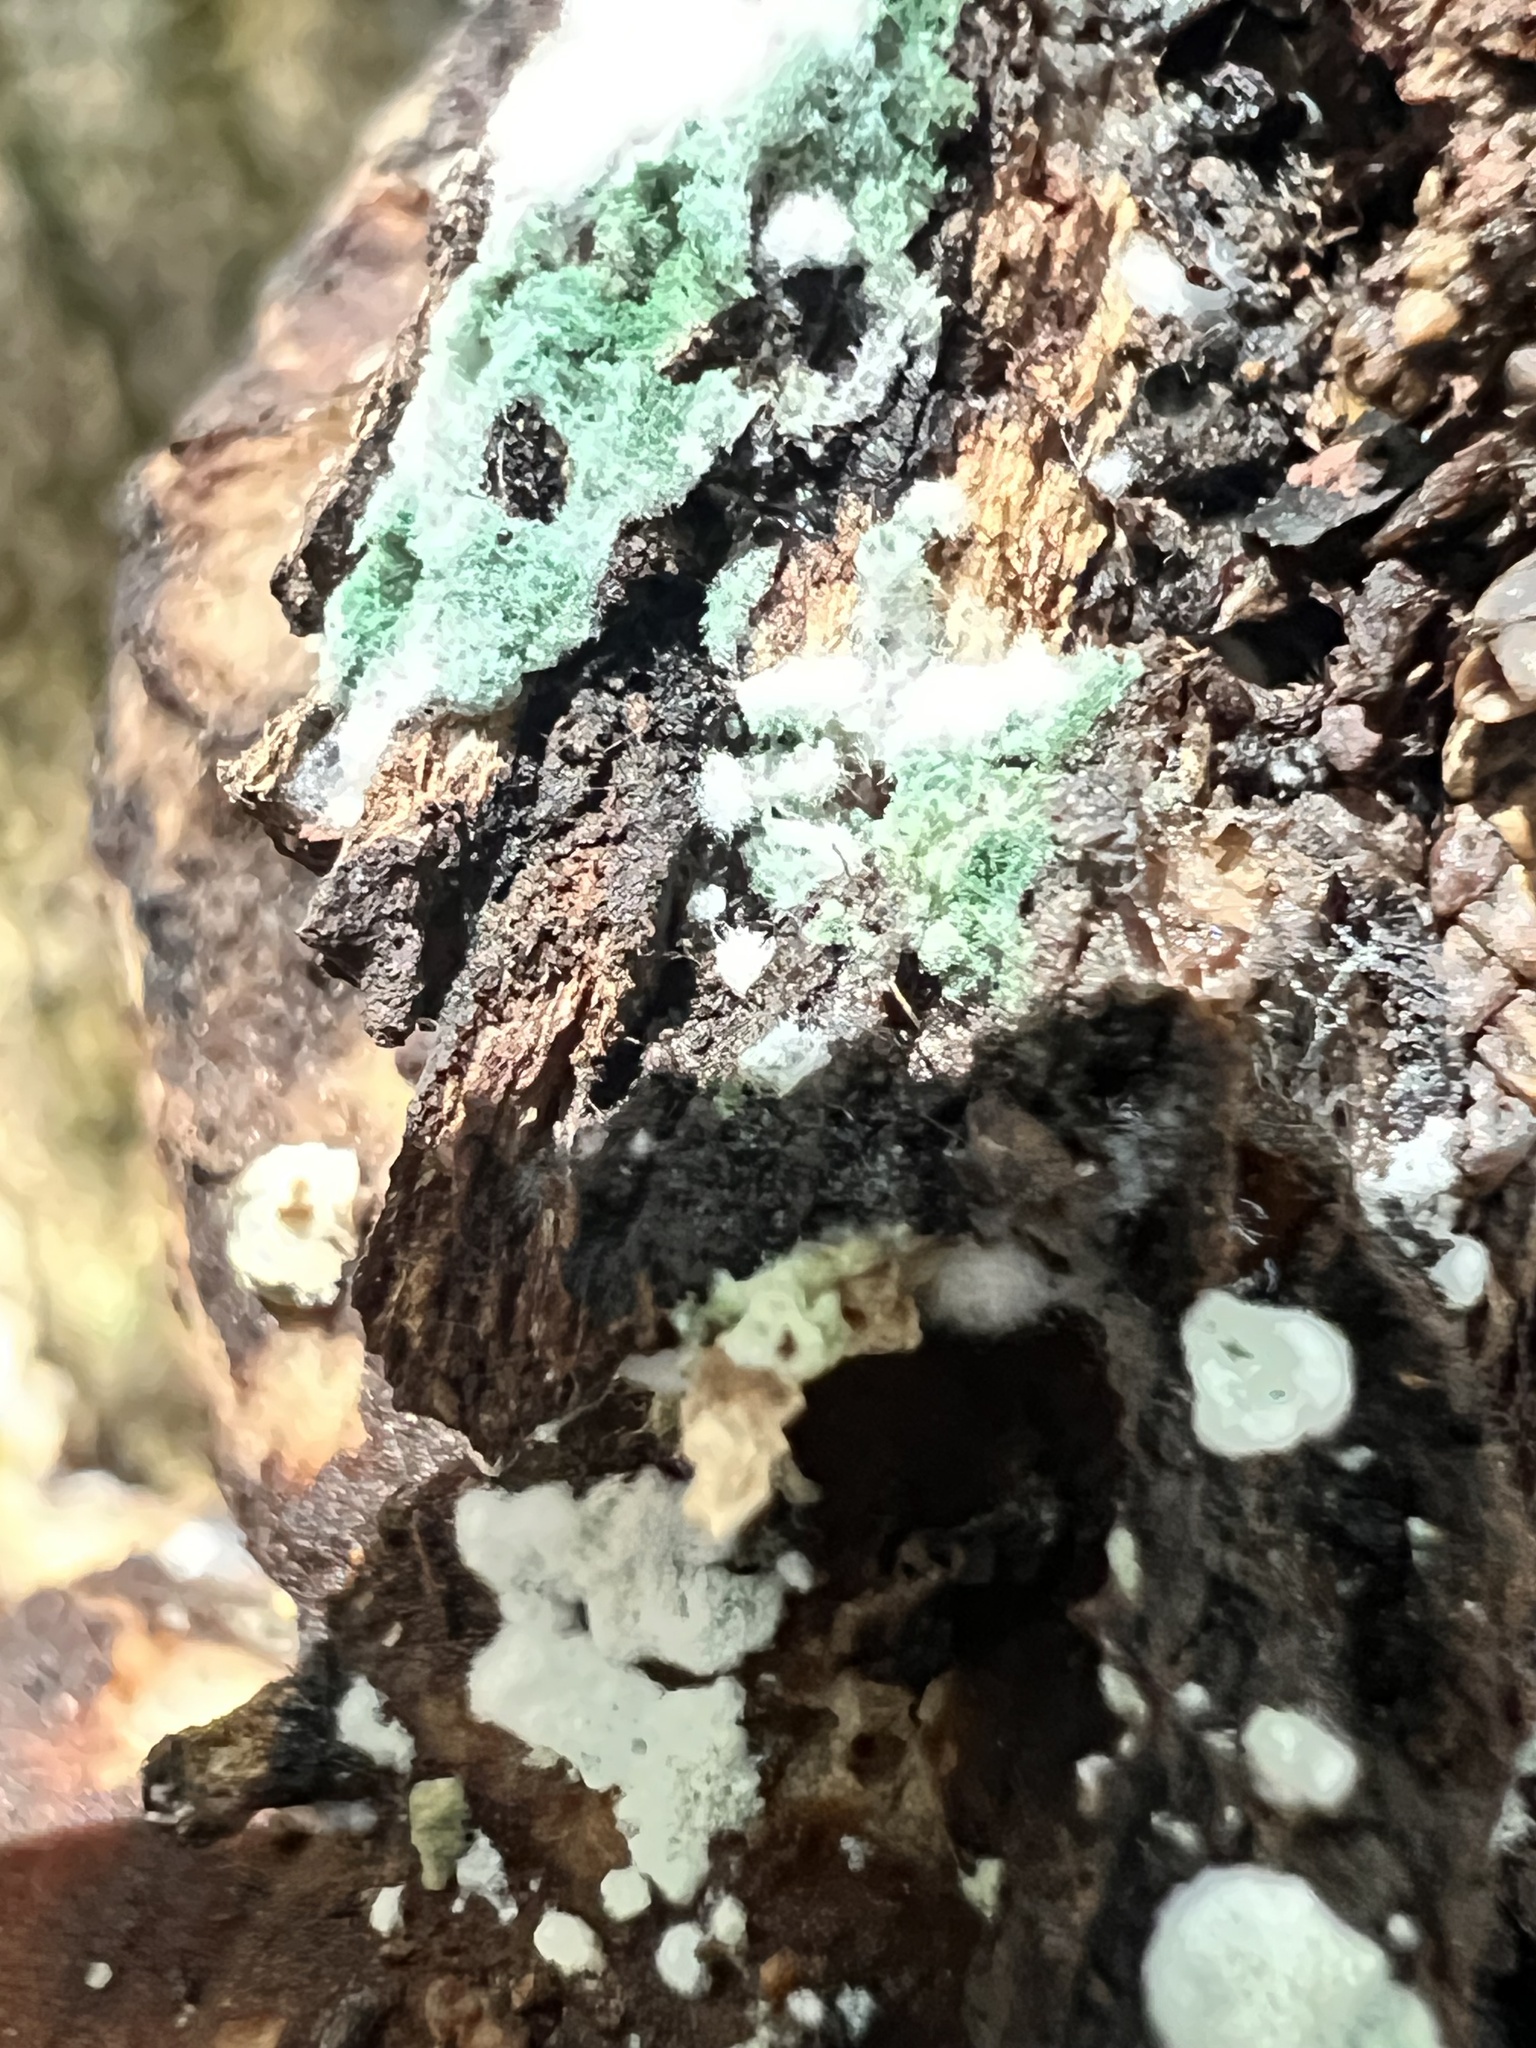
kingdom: Fungi
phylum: Ascomycota
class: Sordariomycetes
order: Hypocreales
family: Hypocreaceae
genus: Trichoderma
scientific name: Trichoderma viride
